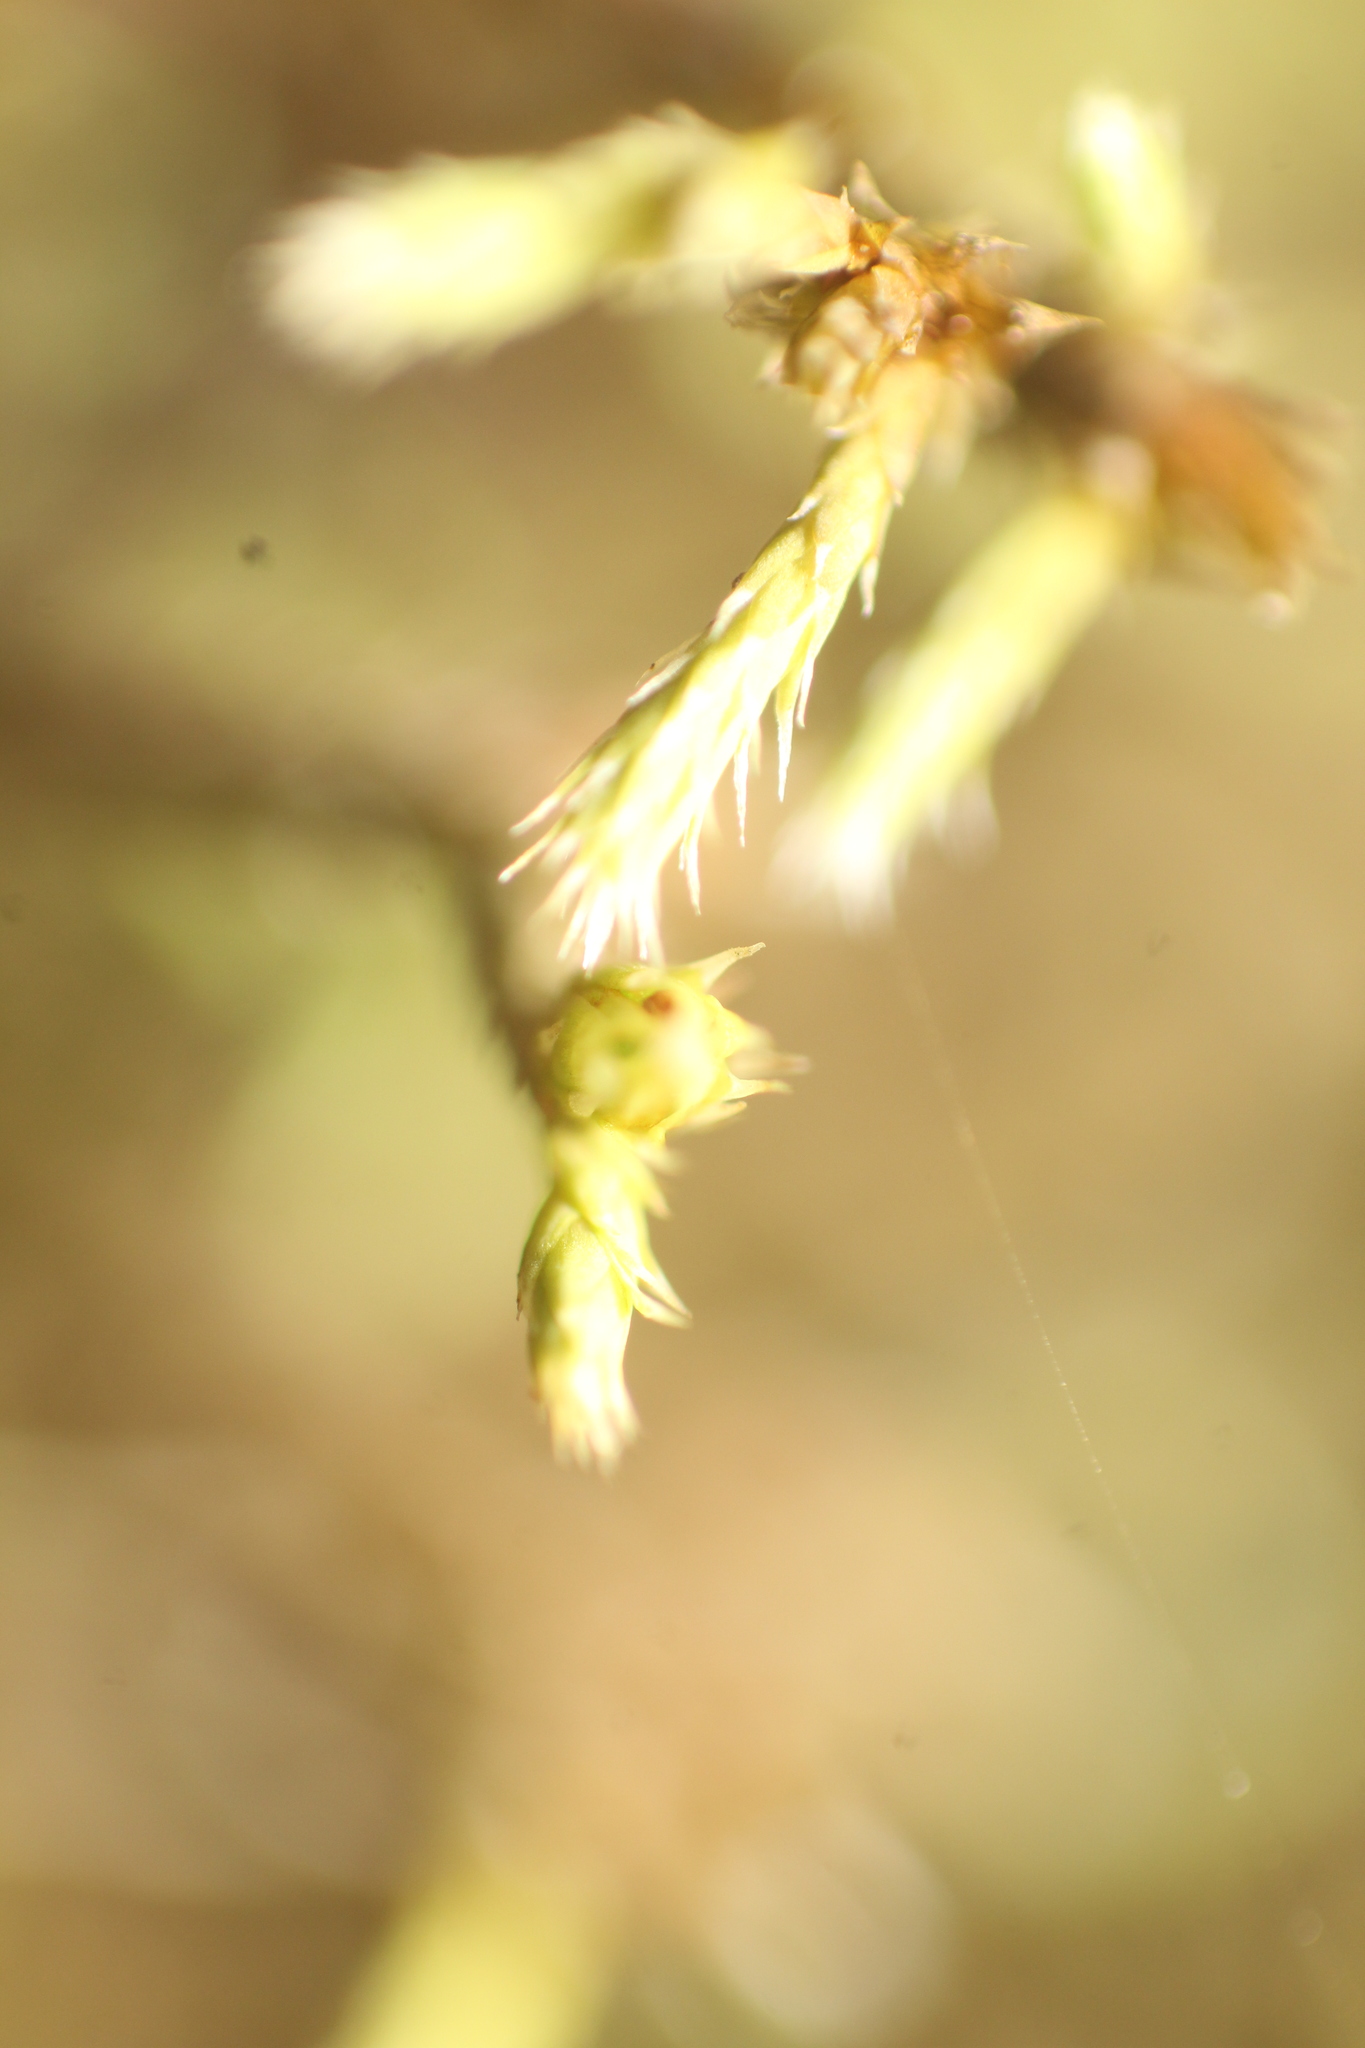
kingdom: Plantae
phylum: Bryophyta
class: Bryopsida
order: Hedwigiales
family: Hedwigiaceae
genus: Hedwigia
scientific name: Hedwigia ciliata
